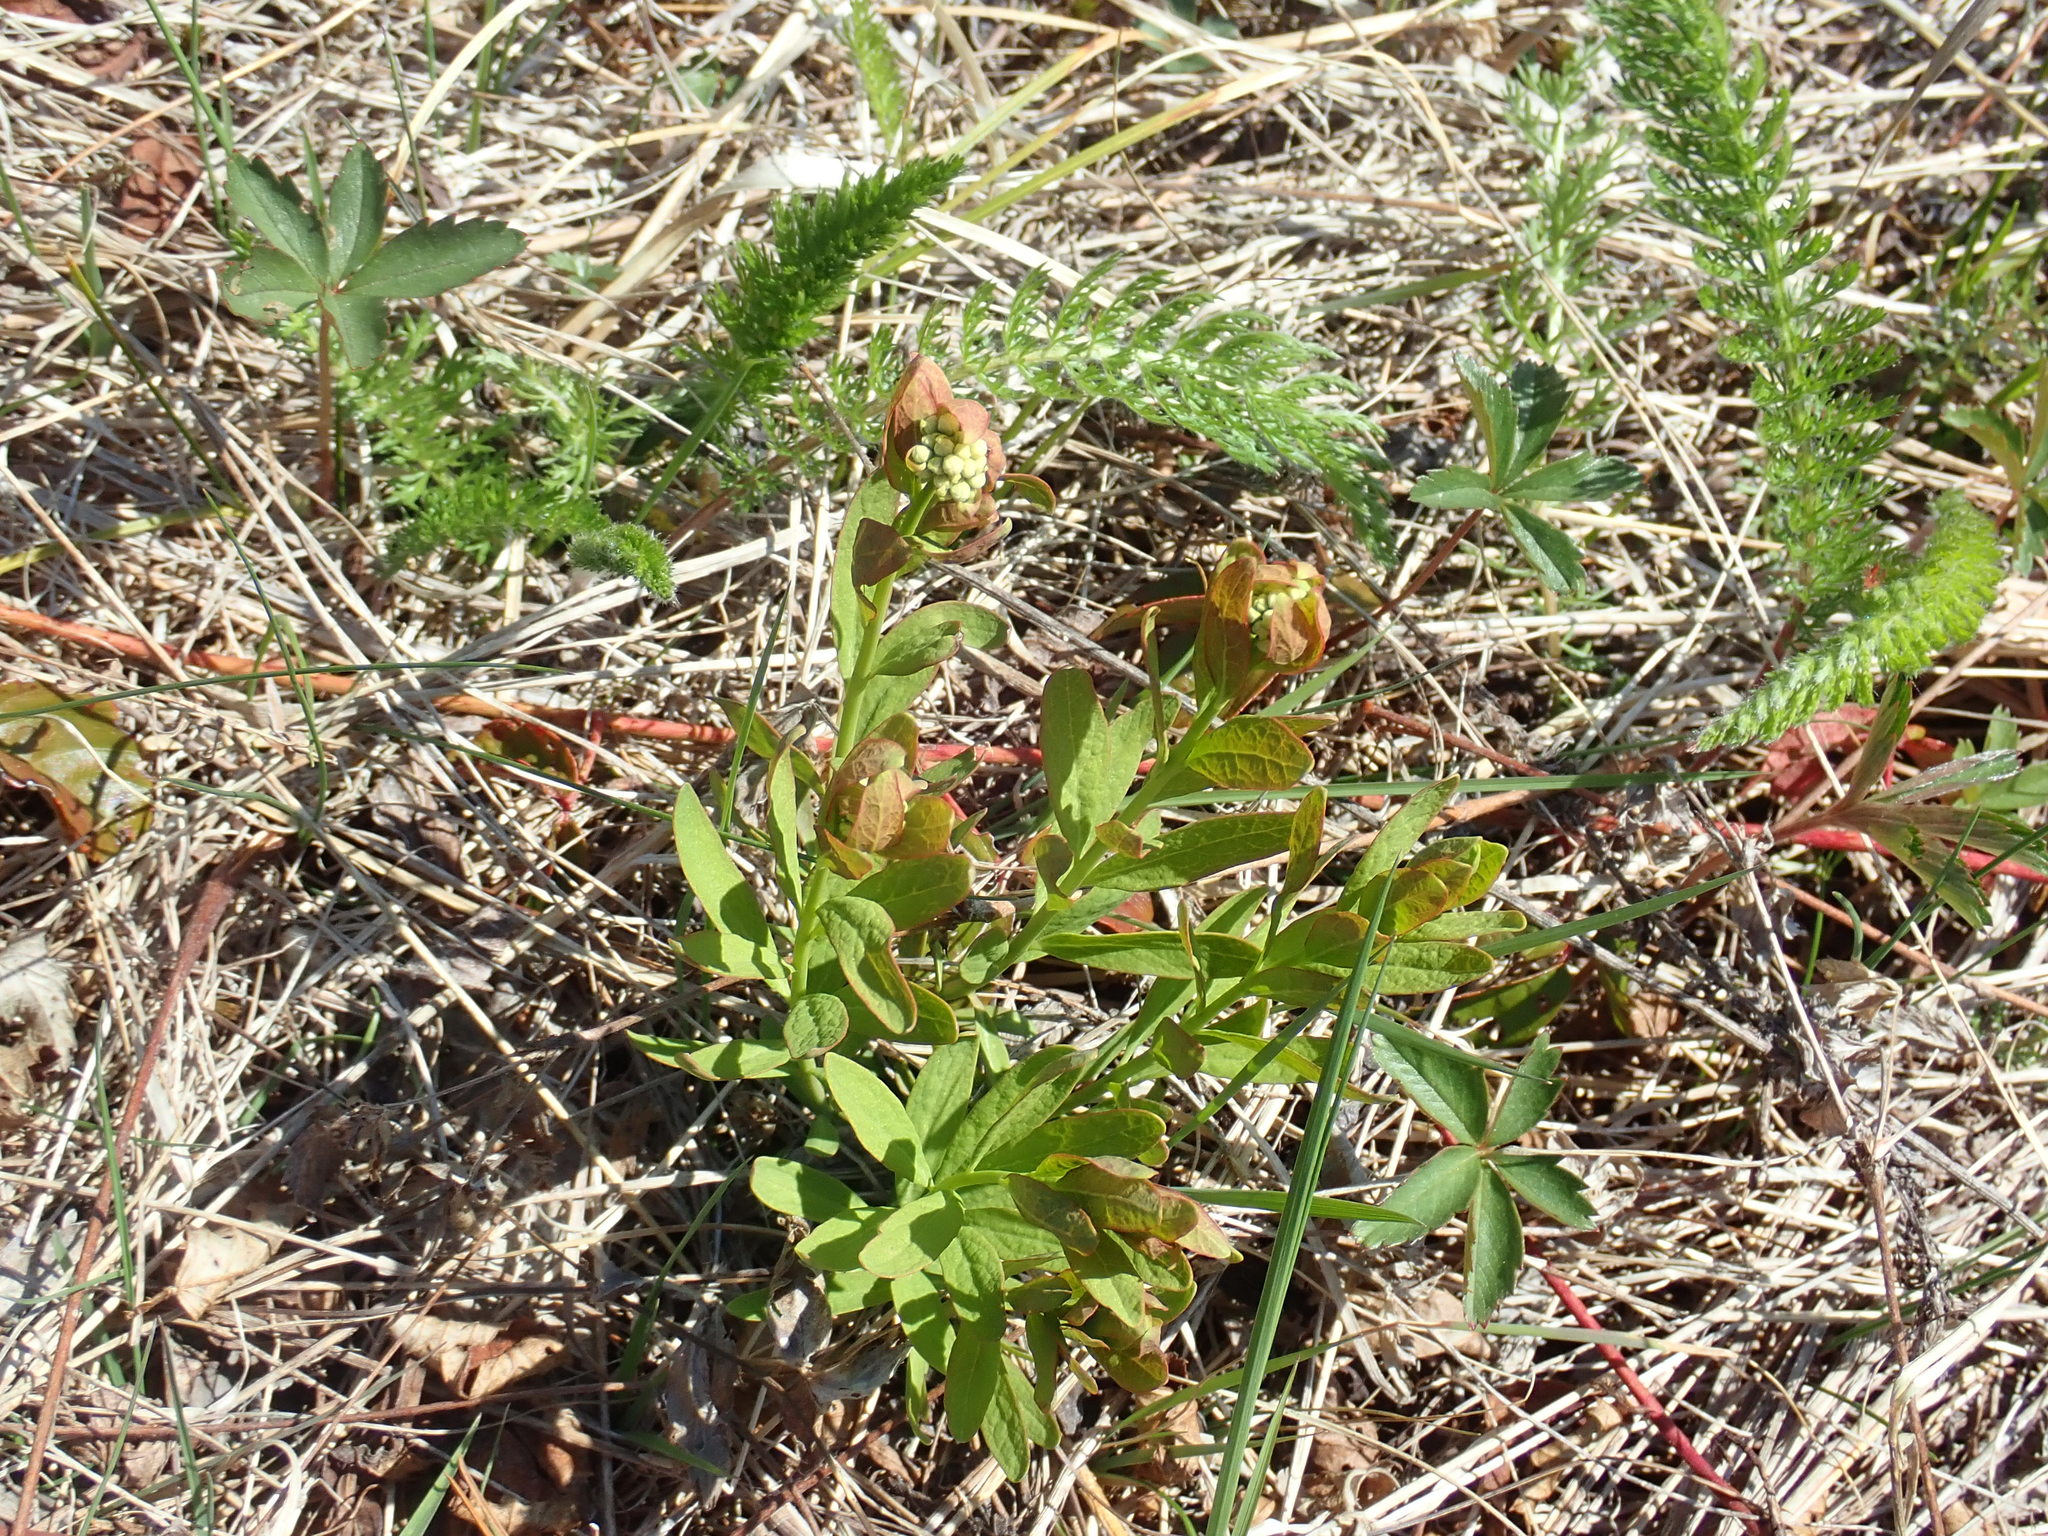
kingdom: Plantae
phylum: Tracheophyta
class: Magnoliopsida
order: Santalales
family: Comandraceae
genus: Comandra
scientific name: Comandra umbellata
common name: Bastard toadflax
